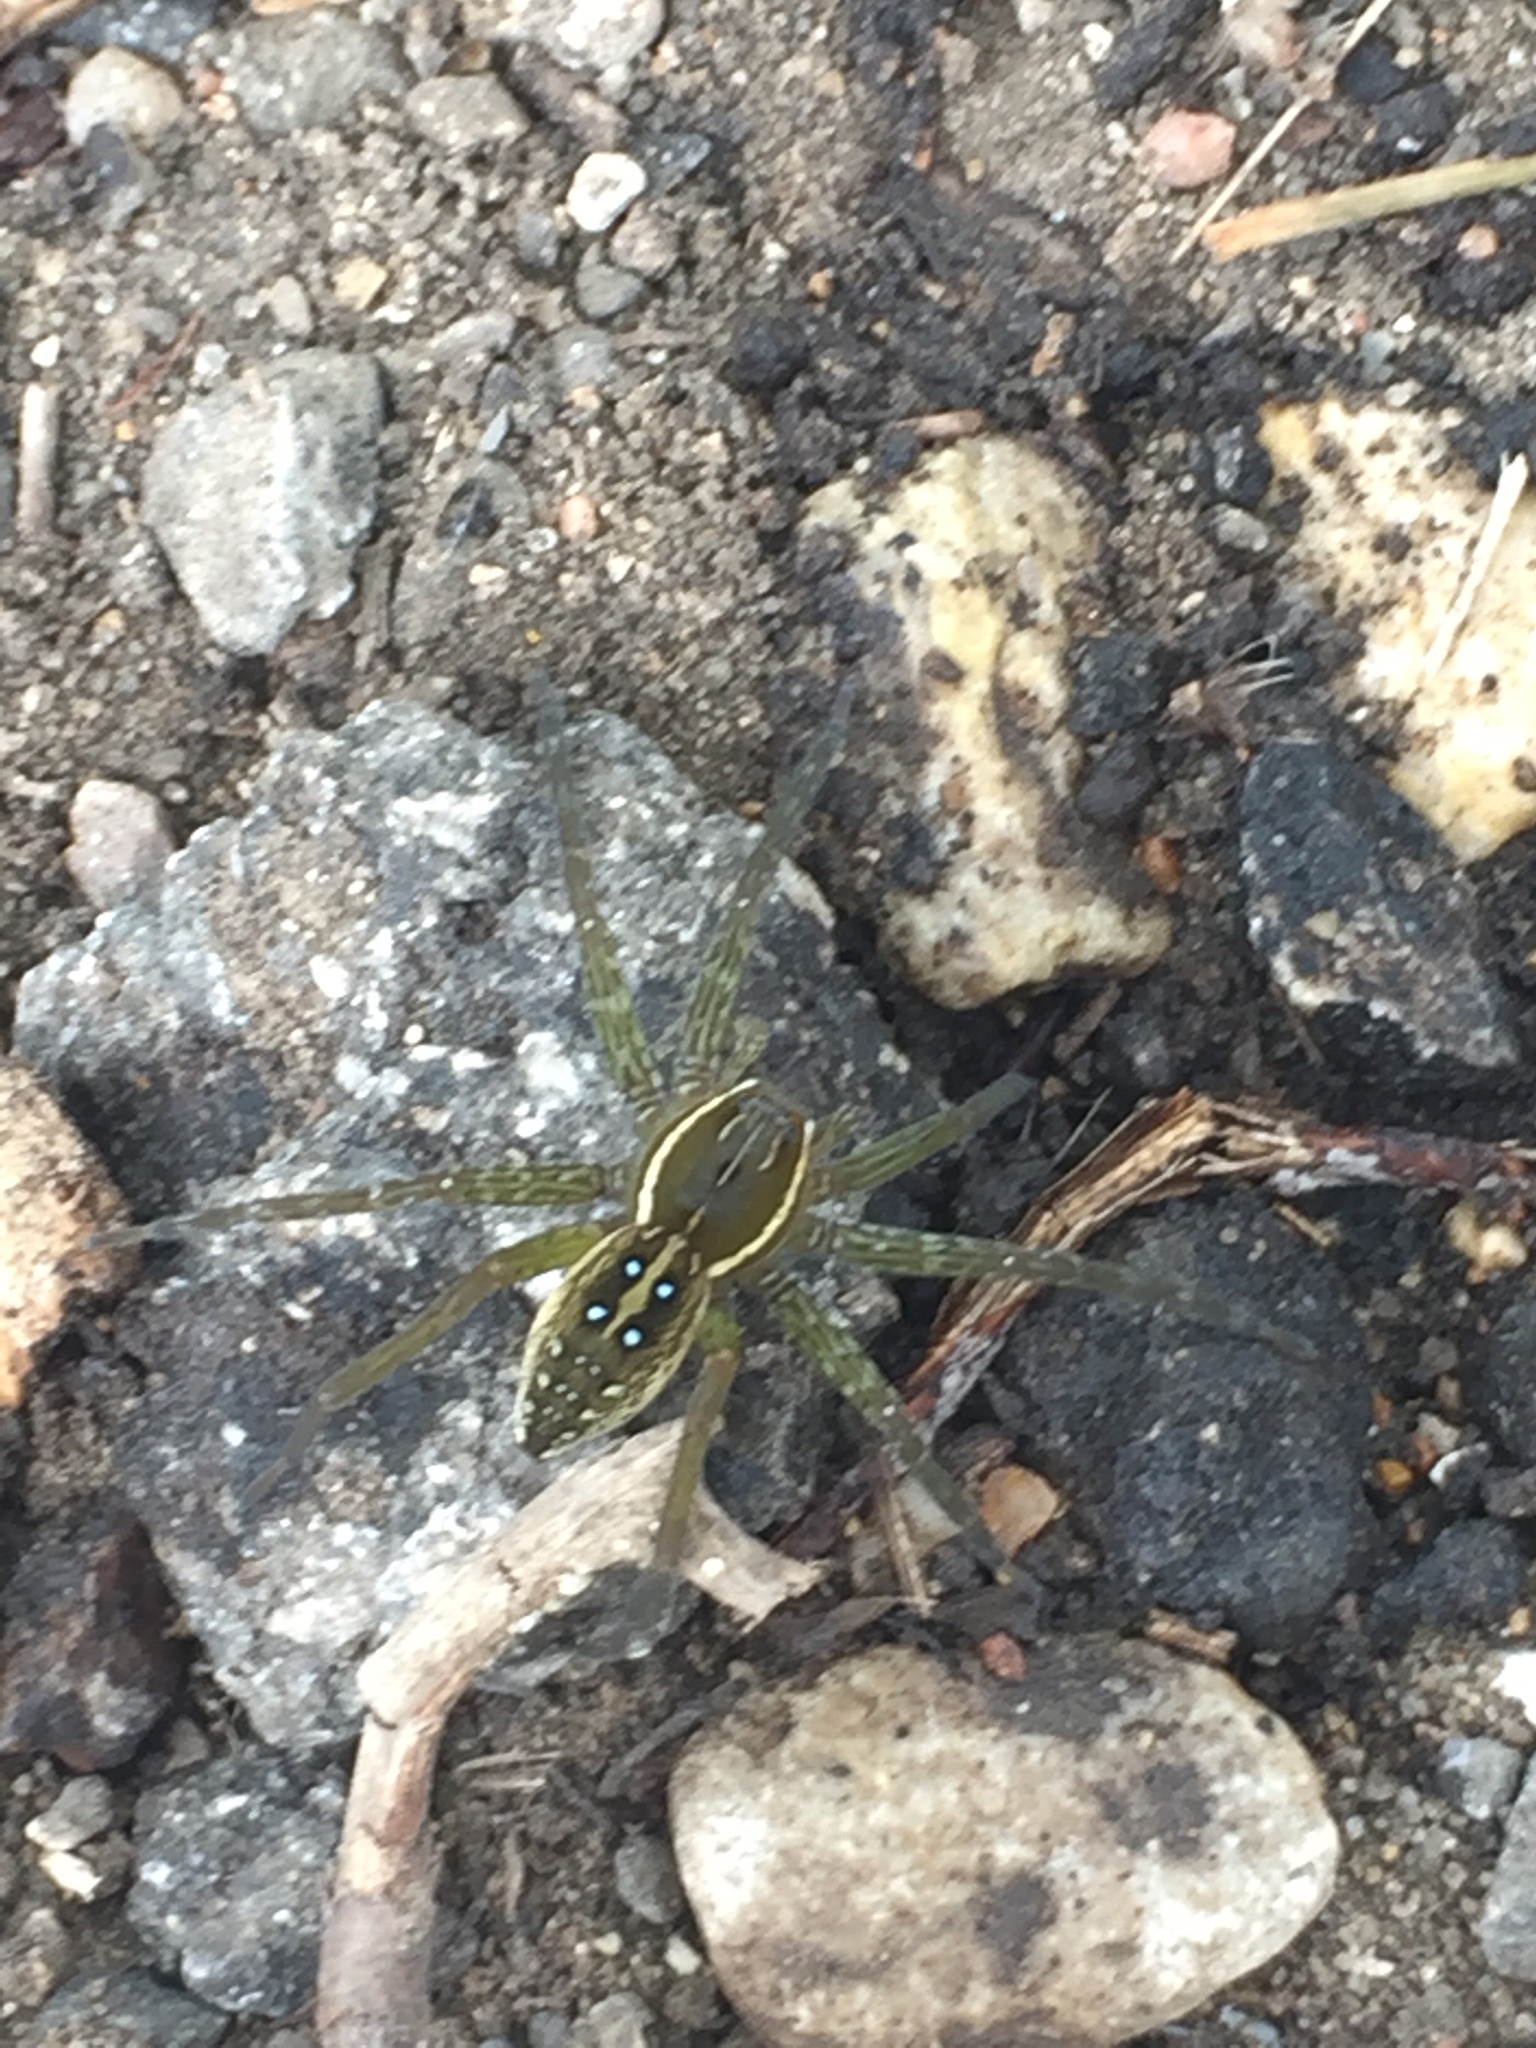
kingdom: Animalia
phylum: Arthropoda
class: Arachnida
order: Araneae
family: Pisauridae
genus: Dolomedes
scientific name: Dolomedes triton
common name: Six-spotted fishing spider
